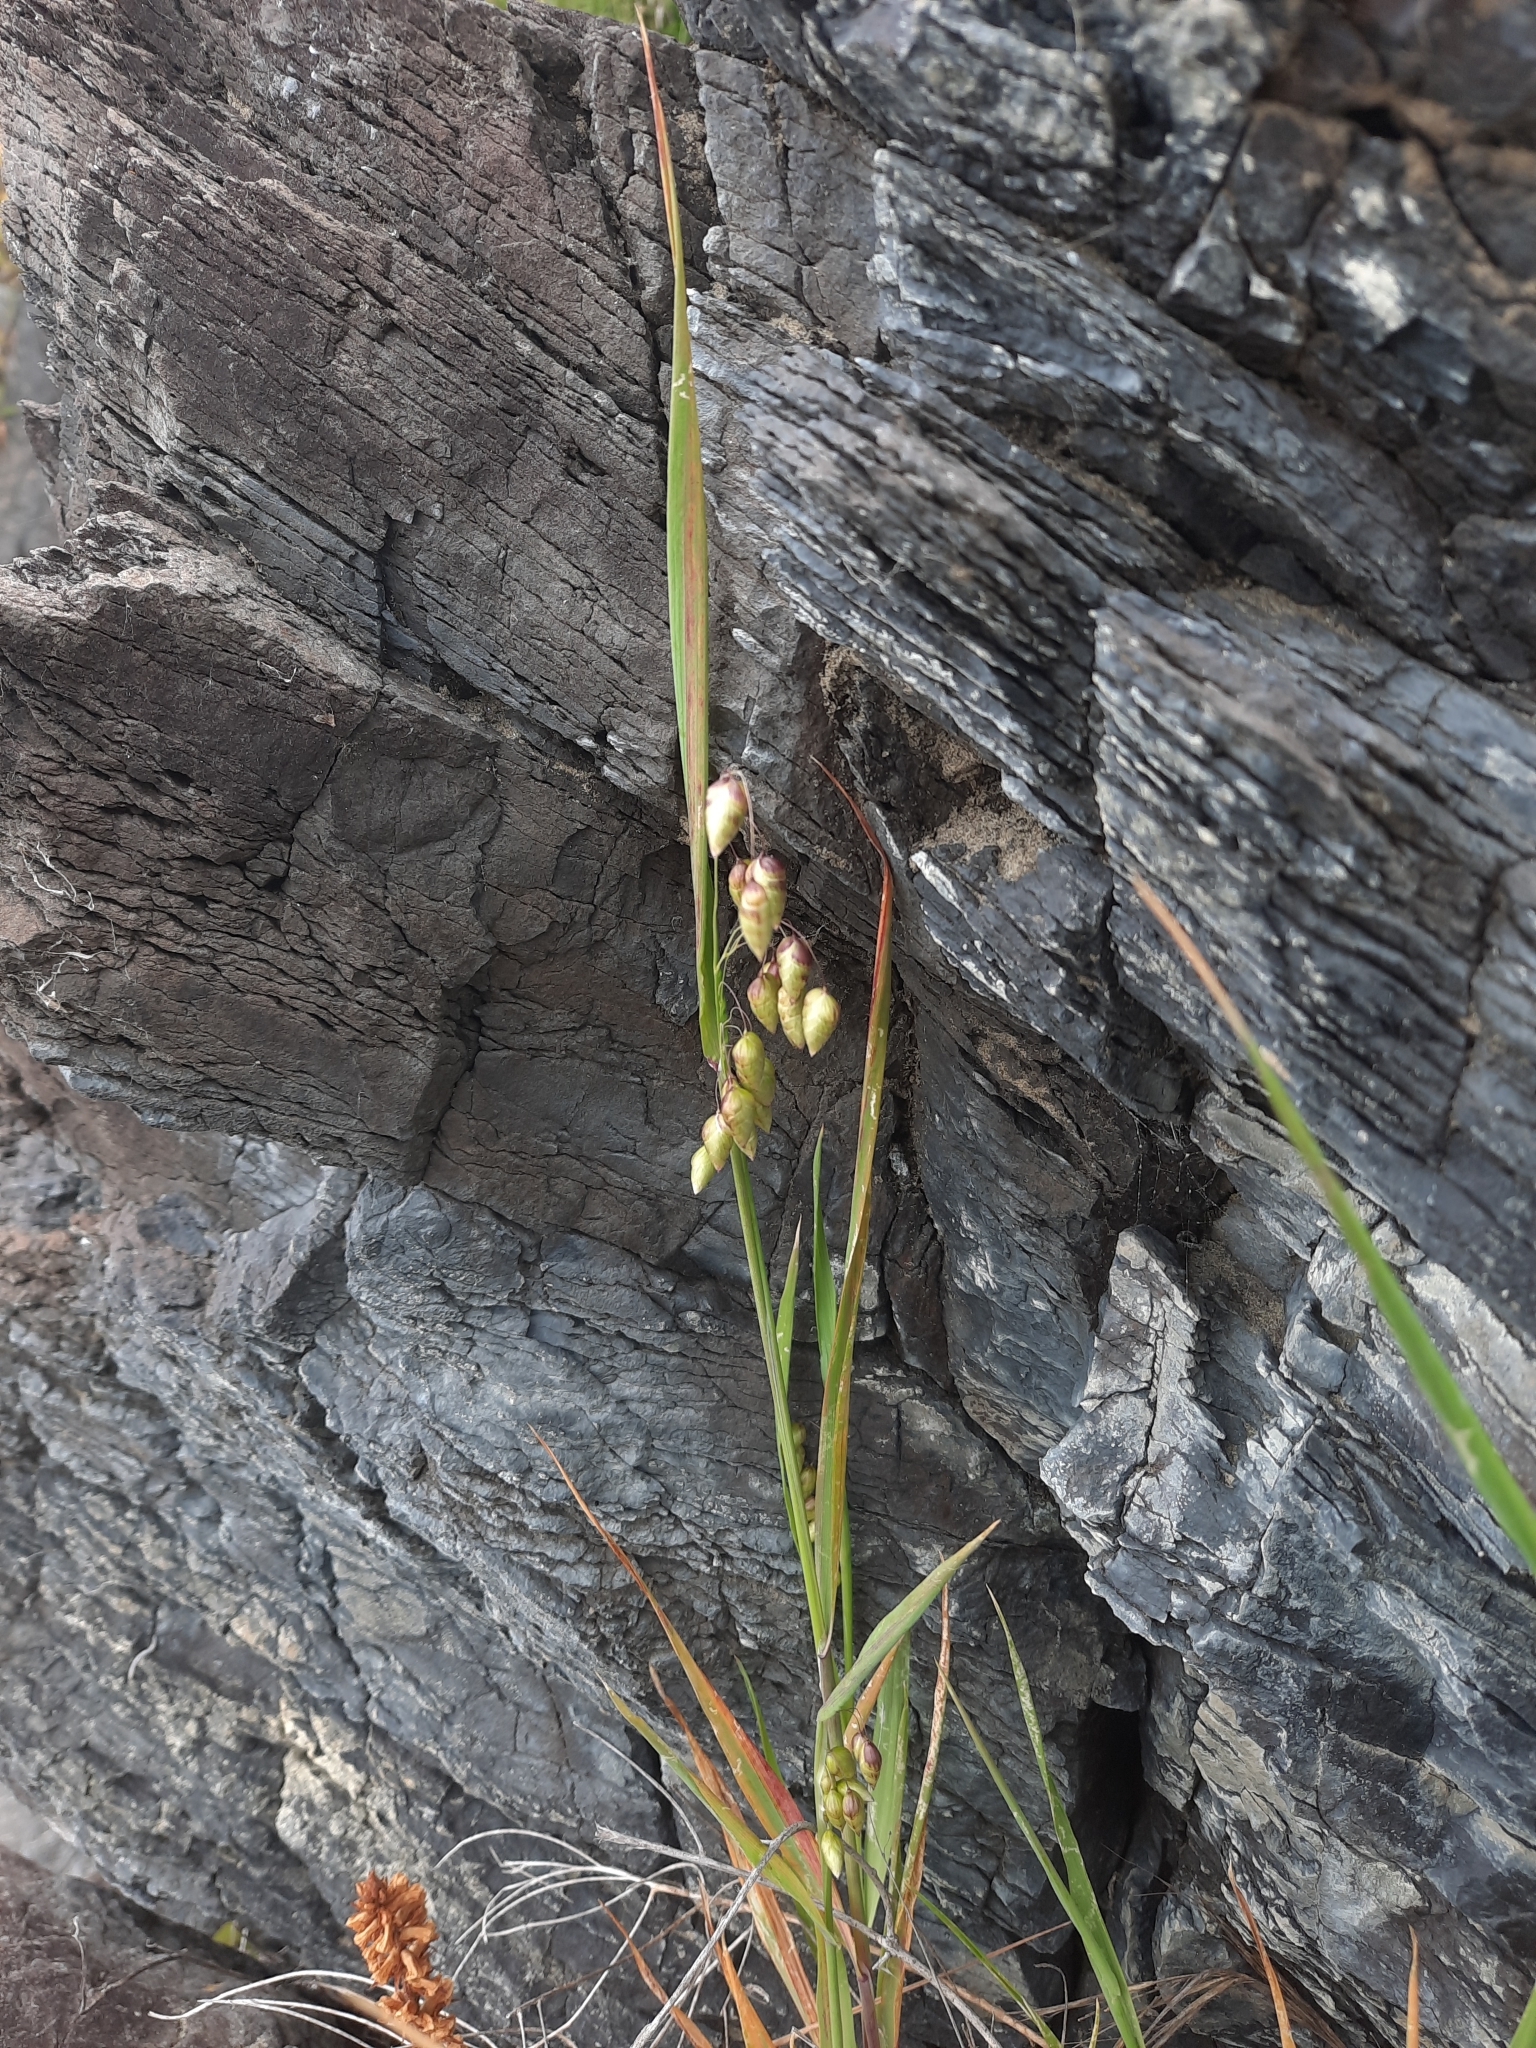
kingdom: Plantae
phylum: Tracheophyta
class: Liliopsida
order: Poales
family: Poaceae
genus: Briza
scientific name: Briza maxima
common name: Big quakinggrass
